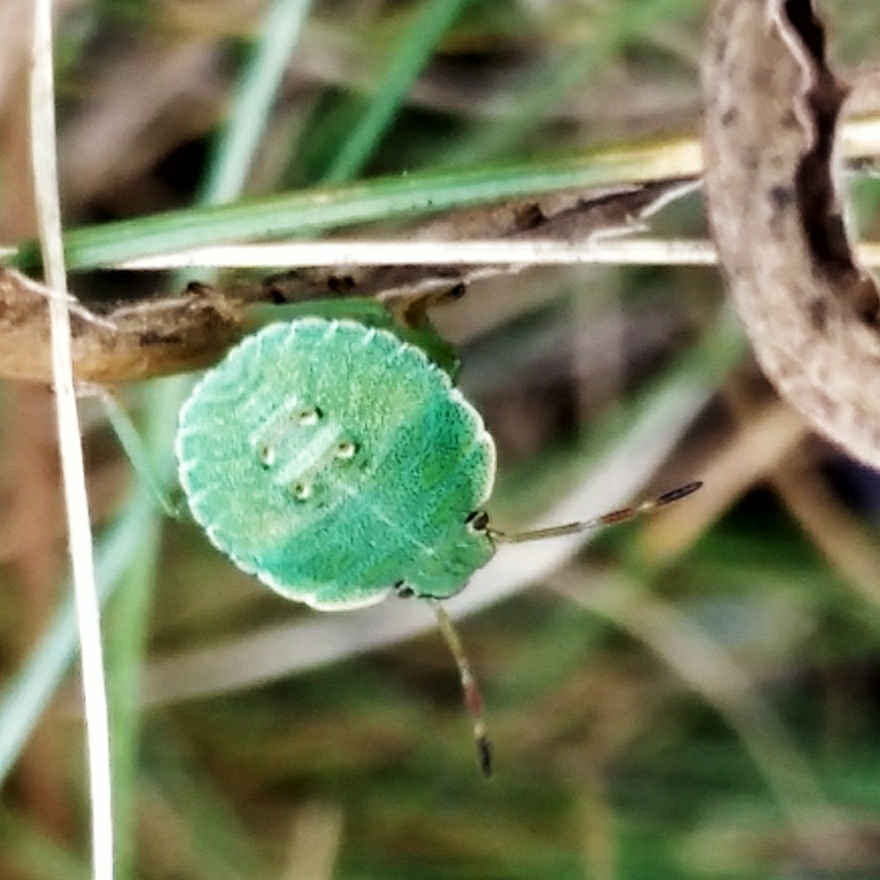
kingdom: Animalia
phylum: Arthropoda
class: Insecta
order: Hemiptera
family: Pentatomidae
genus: Palomena
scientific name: Palomena prasina
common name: Green shieldbug
